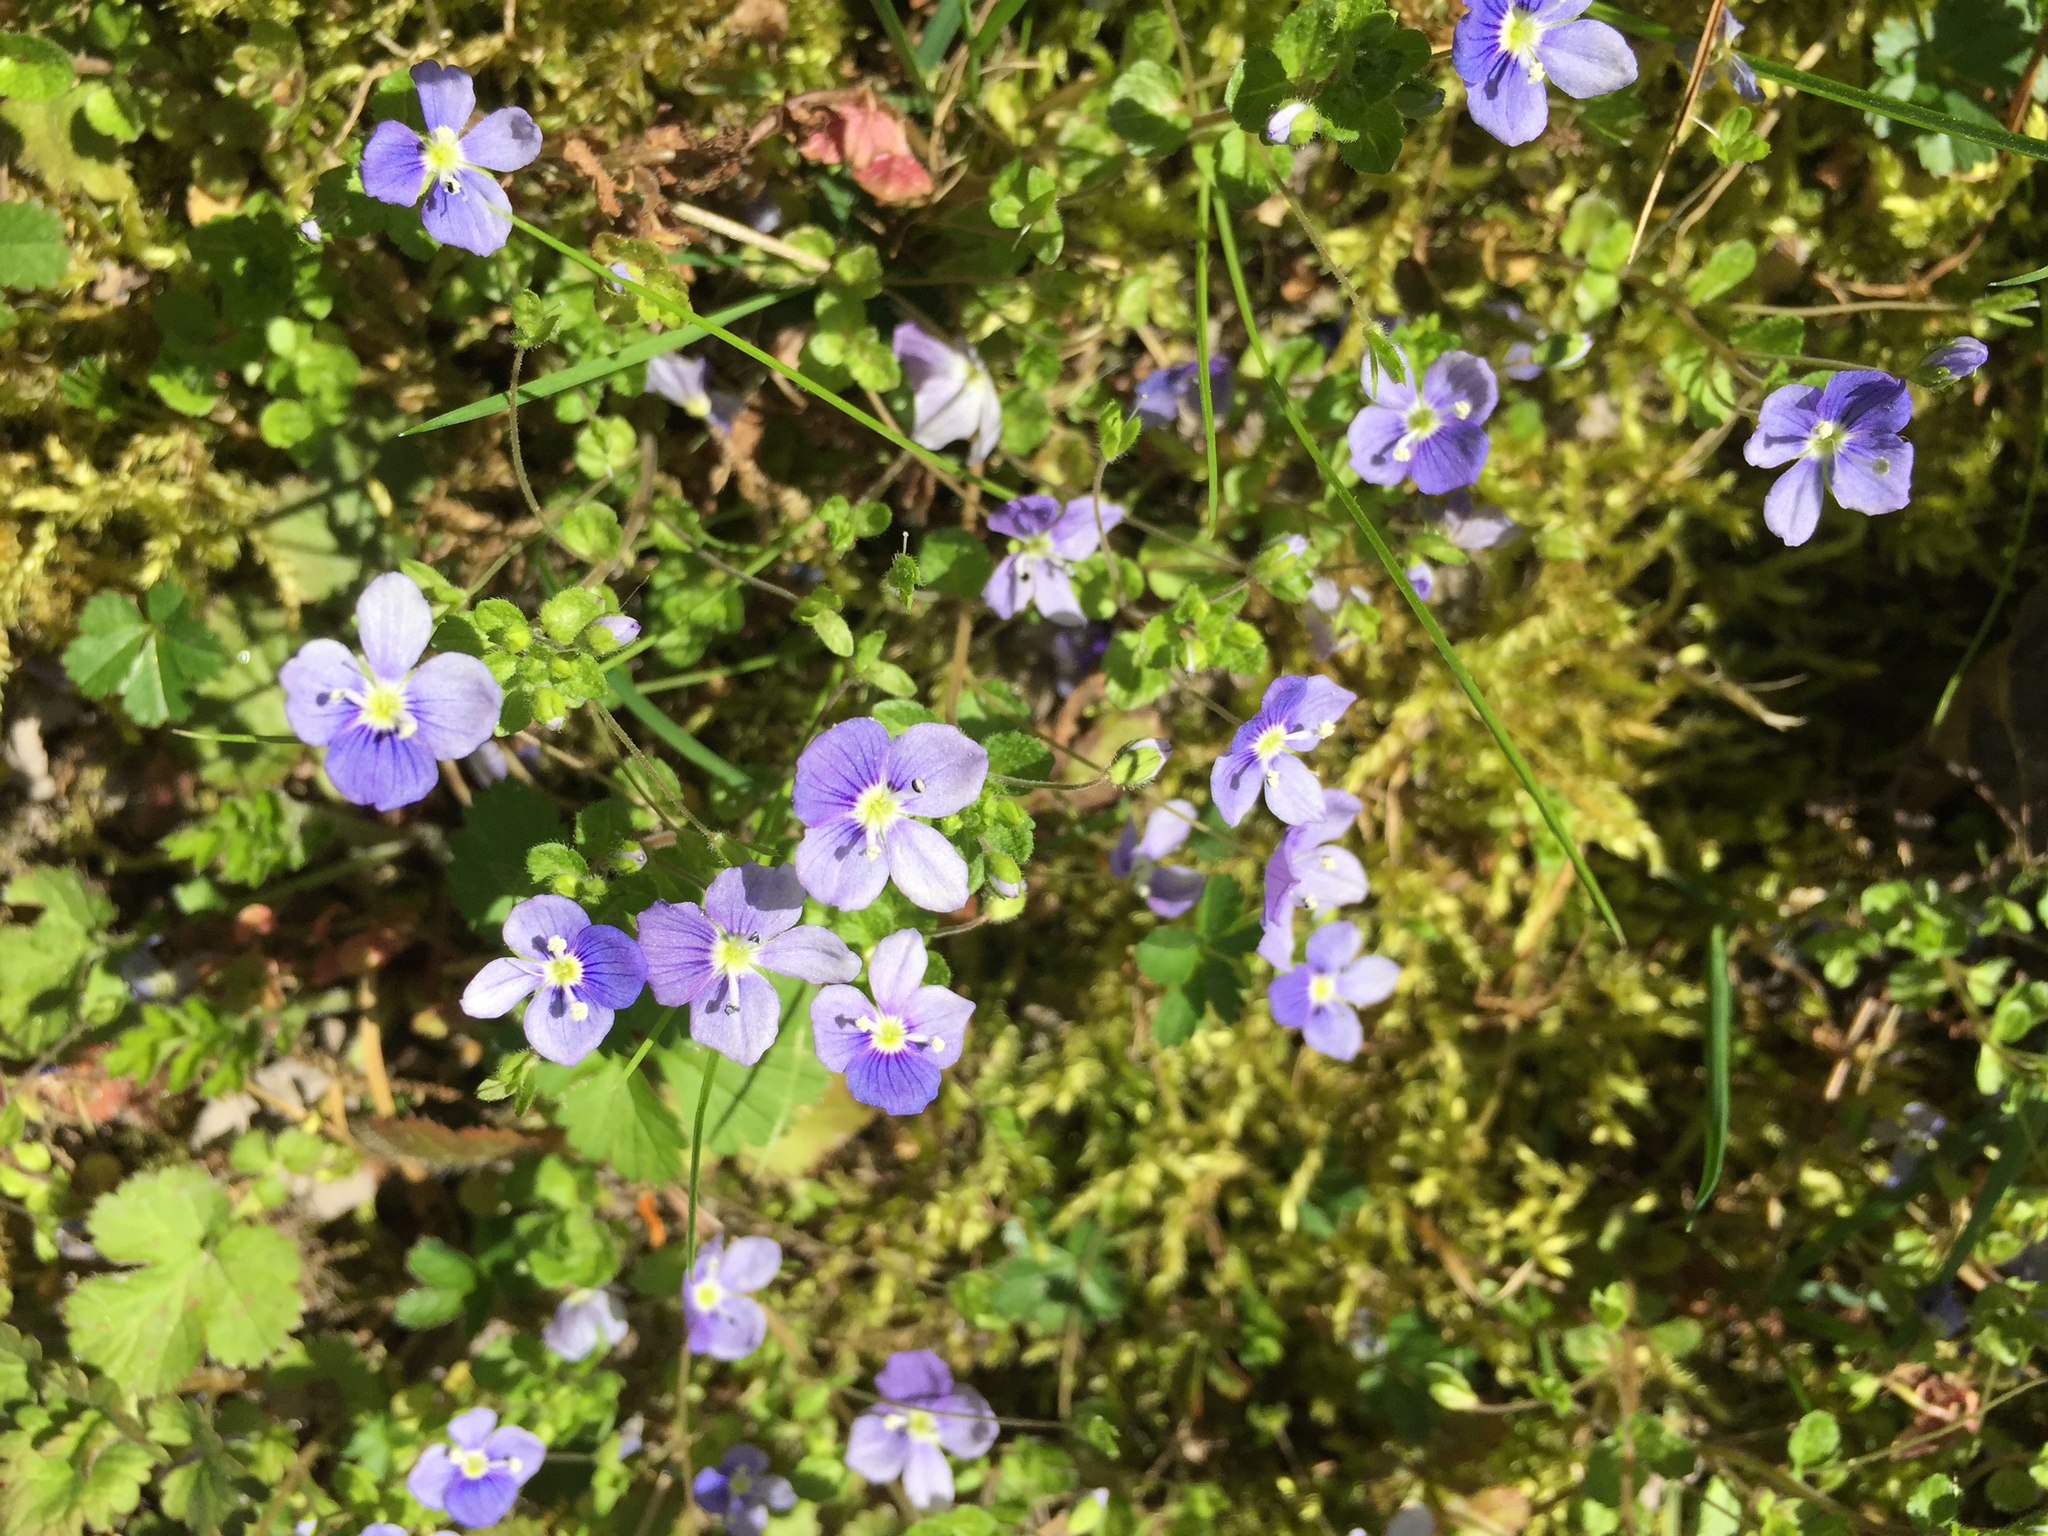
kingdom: Plantae
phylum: Tracheophyta
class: Magnoliopsida
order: Lamiales
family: Plantaginaceae
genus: Veronica
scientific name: Veronica filiformis
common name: Slender speedwell
